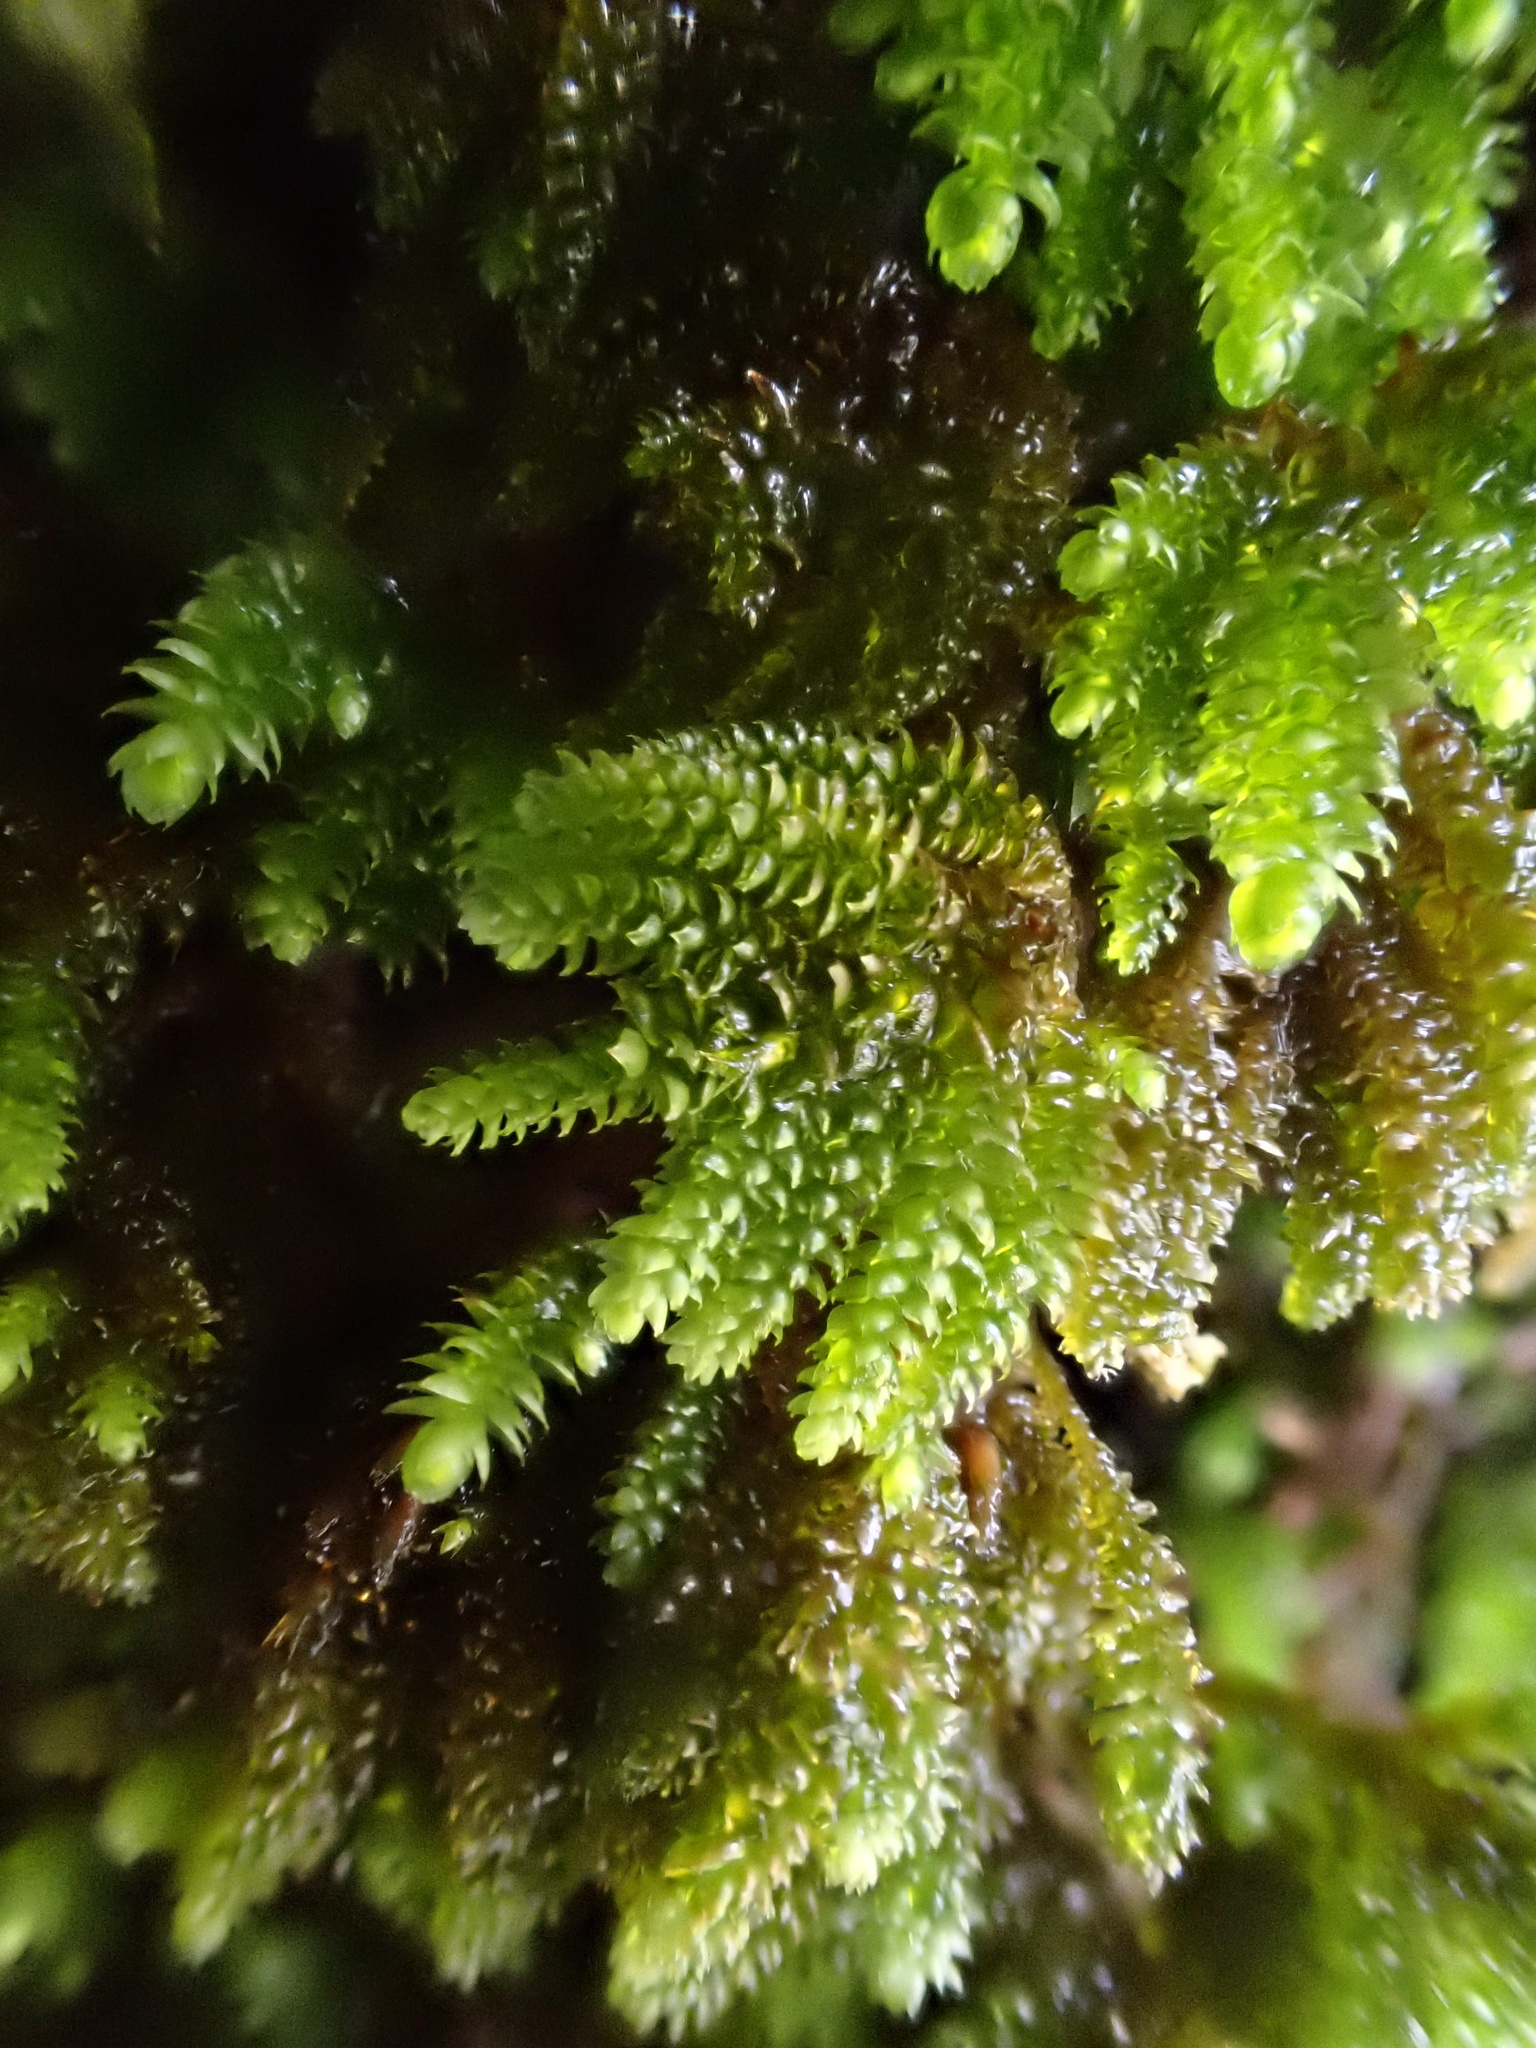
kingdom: Plantae
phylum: Bryophyta
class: Bryopsida
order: Hypnales
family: Lembophyllaceae
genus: Nogopterium
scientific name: Nogopterium gracile
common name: Bird's-foot wing-moss
